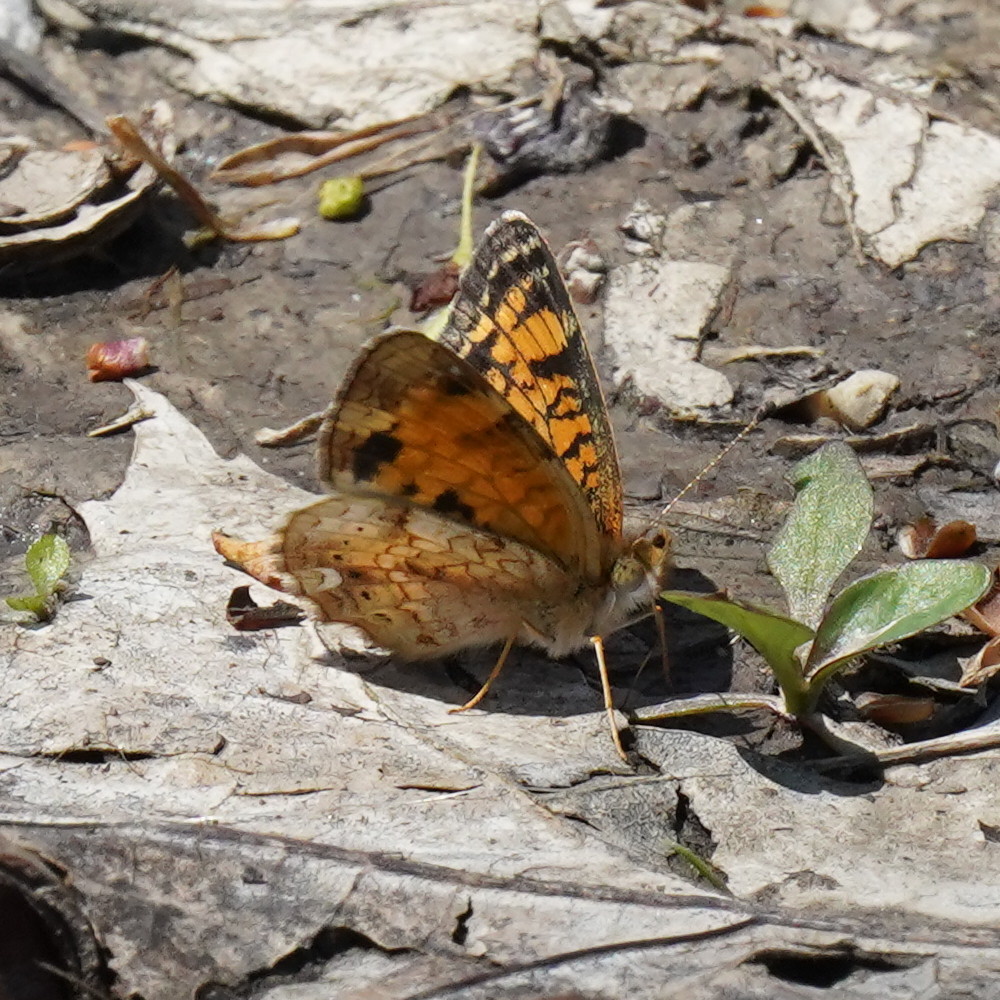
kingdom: Animalia
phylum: Arthropoda
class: Insecta
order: Lepidoptera
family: Nymphalidae
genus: Phyciodes
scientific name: Phyciodes tharos
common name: Pearl crescent
